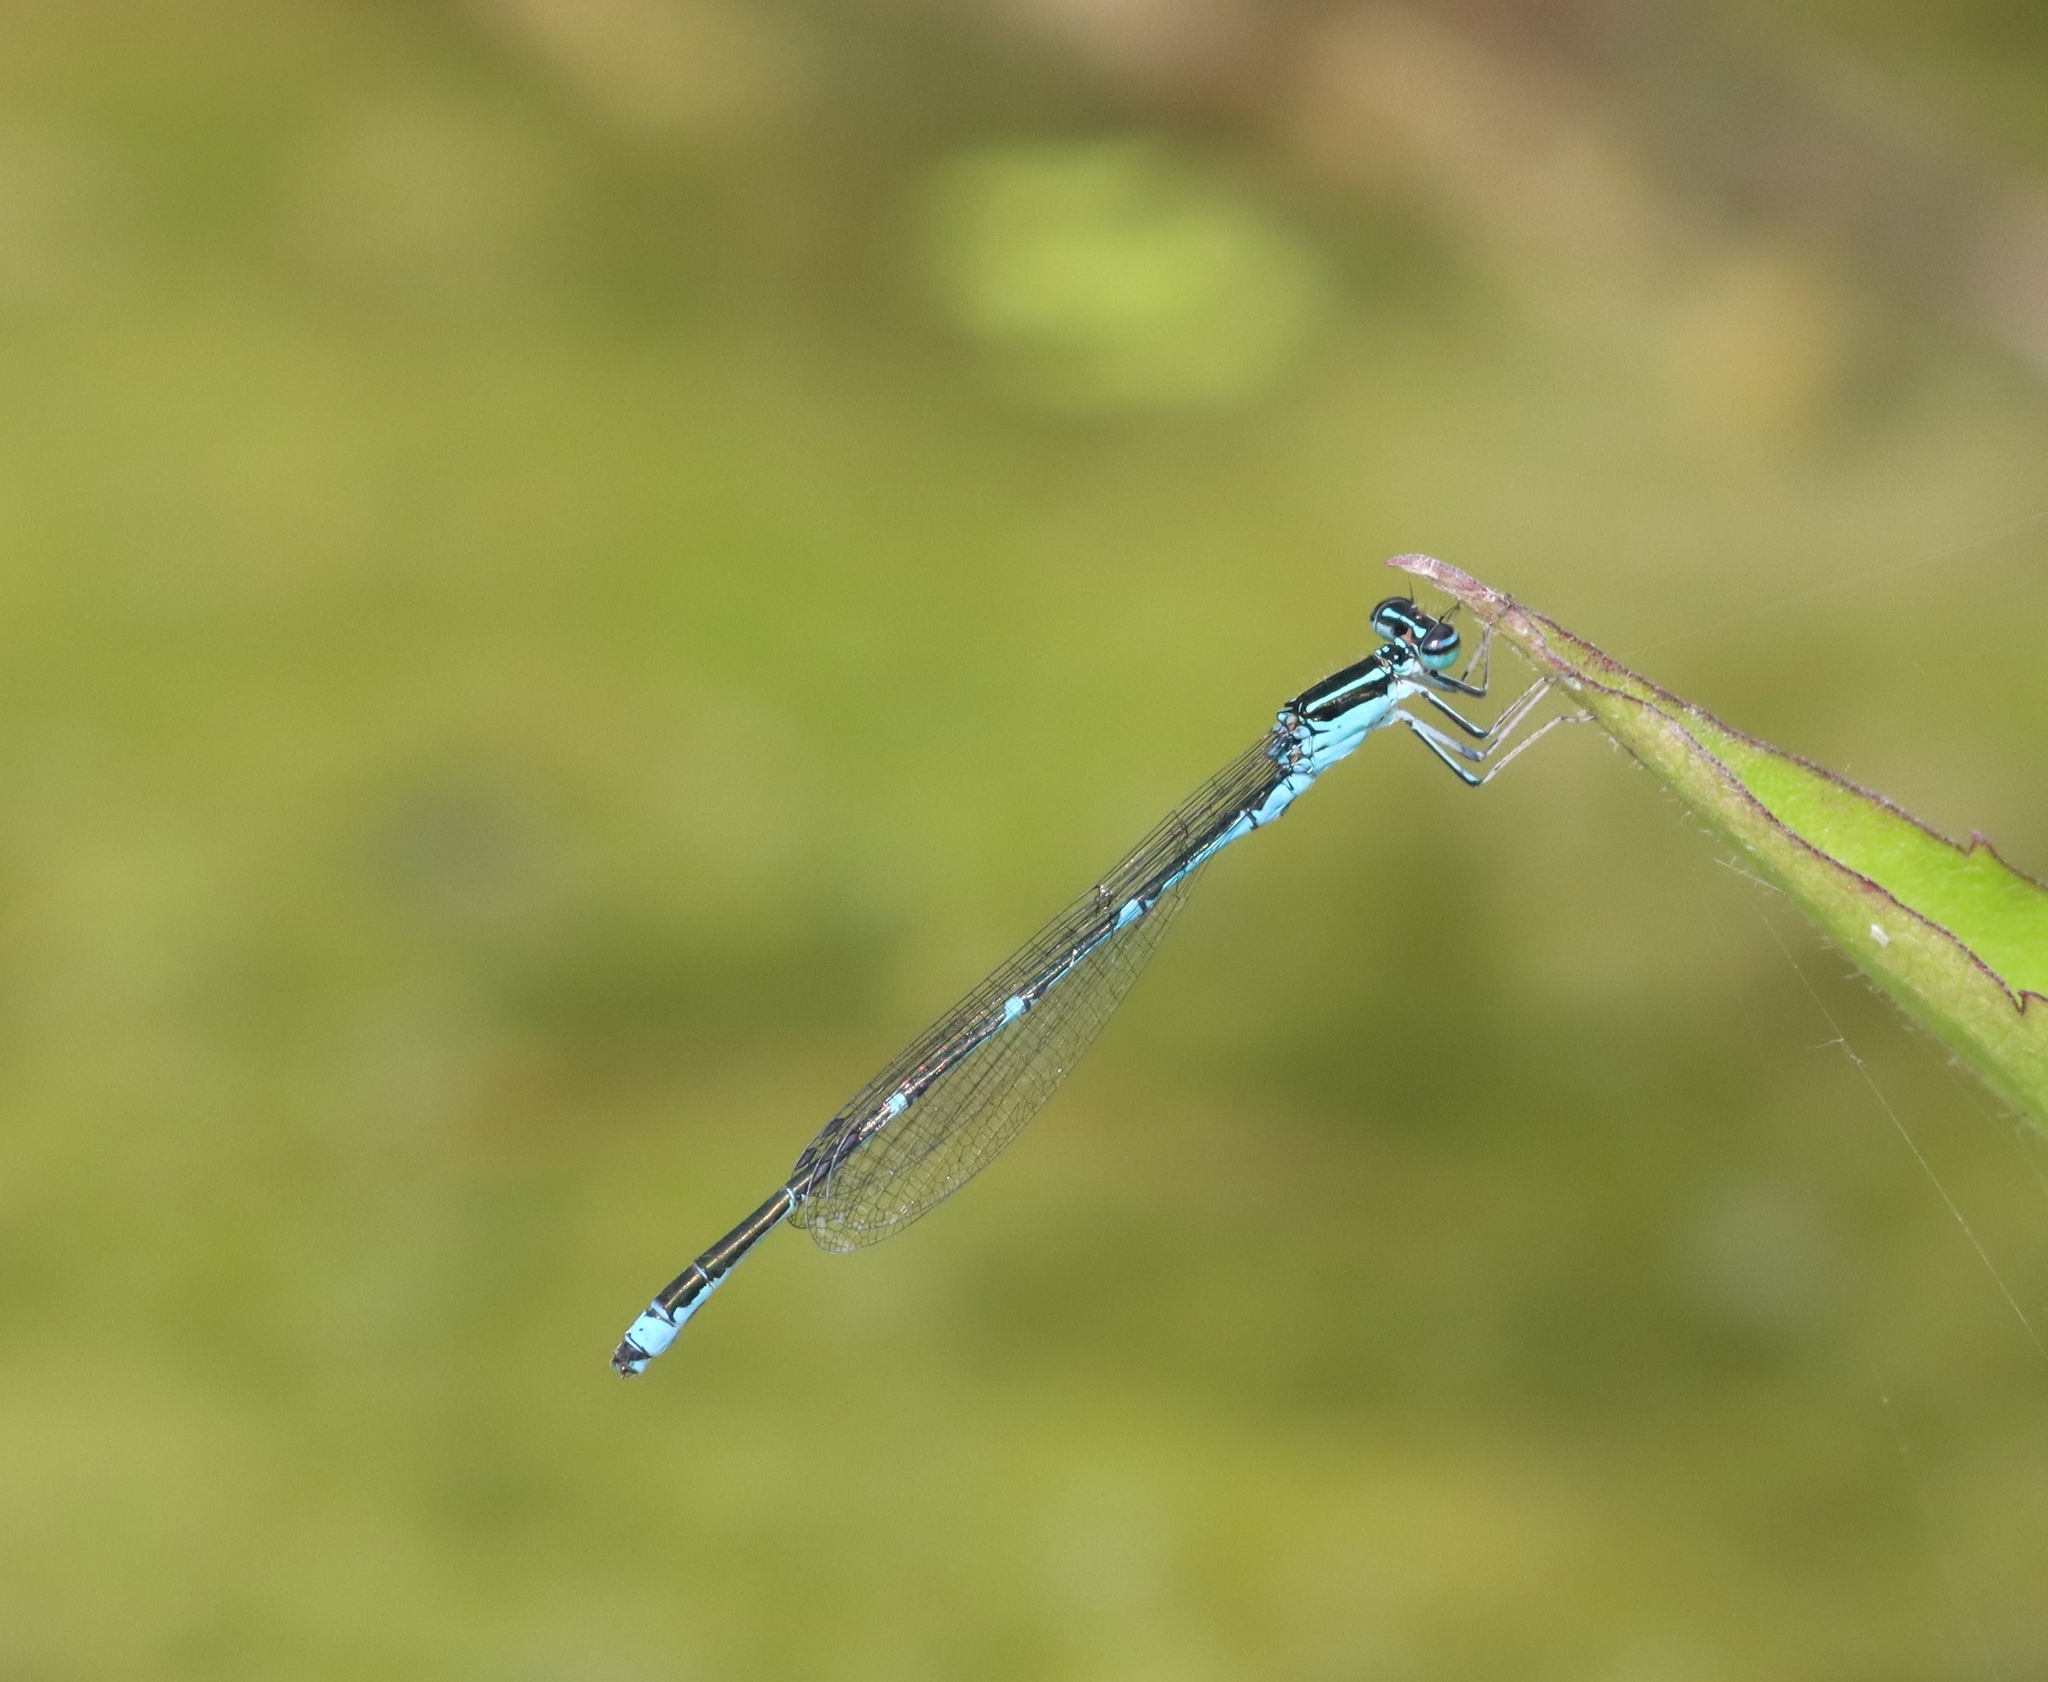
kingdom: Animalia
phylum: Arthropoda
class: Insecta
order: Odonata
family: Coenagrionidae
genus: Enallagma
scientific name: Enallagma exsulans
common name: Stream bluet
